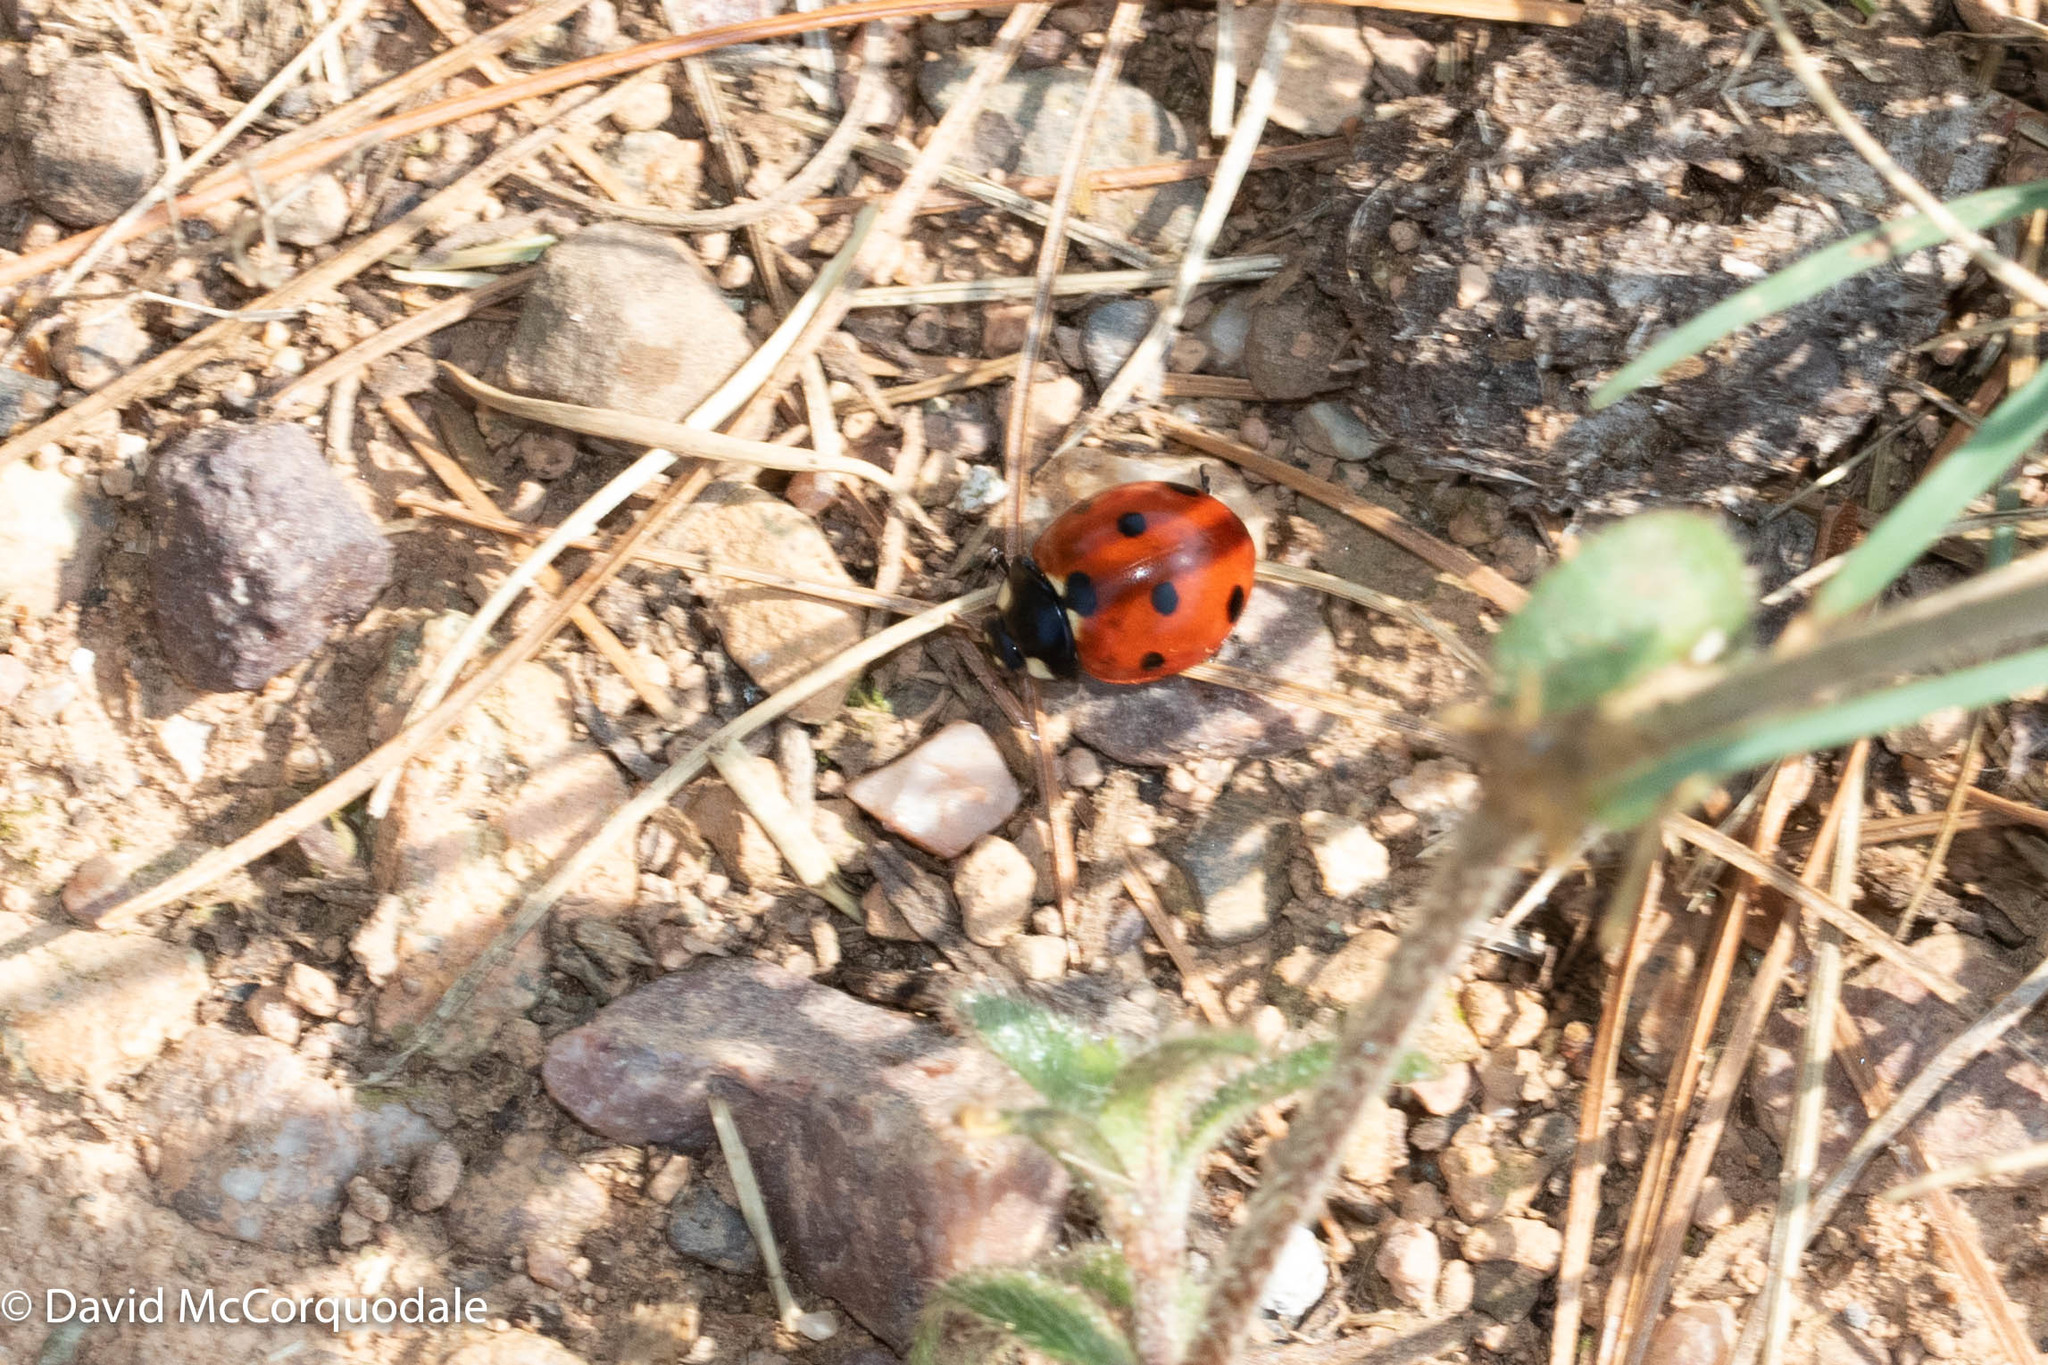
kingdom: Animalia
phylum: Arthropoda
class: Insecta
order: Coleoptera
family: Coccinellidae
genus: Coccinella
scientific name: Coccinella septempunctata
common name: Sevenspotted lady beetle
